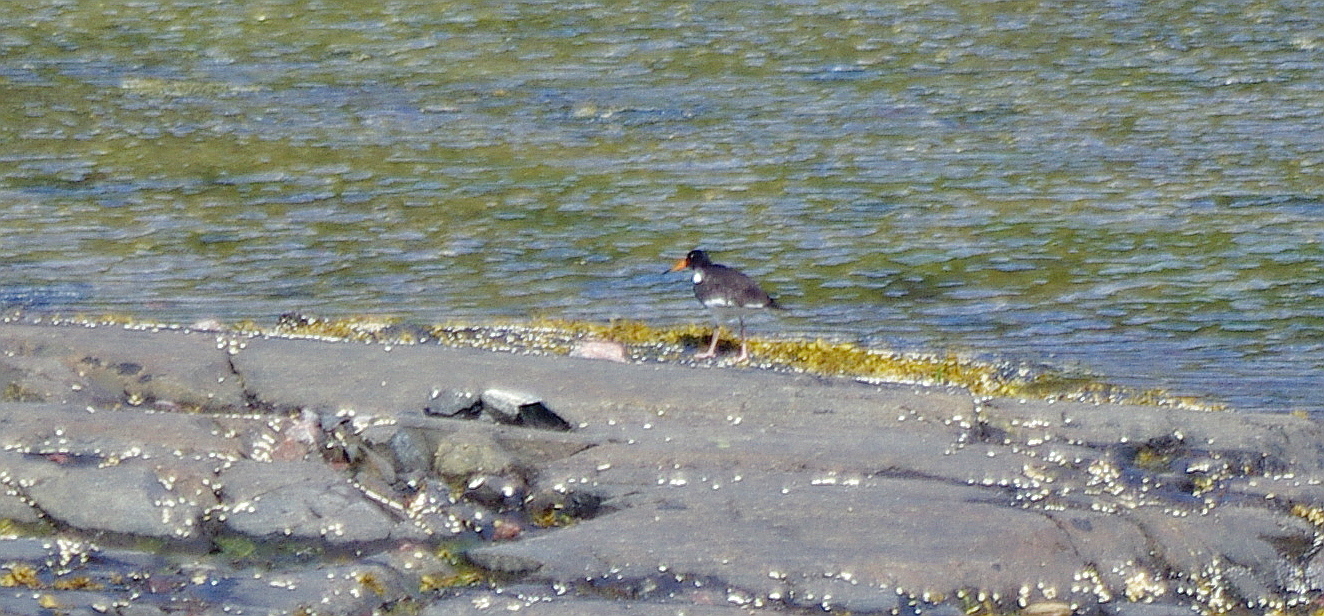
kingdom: Animalia
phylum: Chordata
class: Aves
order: Charadriiformes
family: Haematopodidae
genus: Haematopus
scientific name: Haematopus ostralegus
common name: Eurasian oystercatcher
